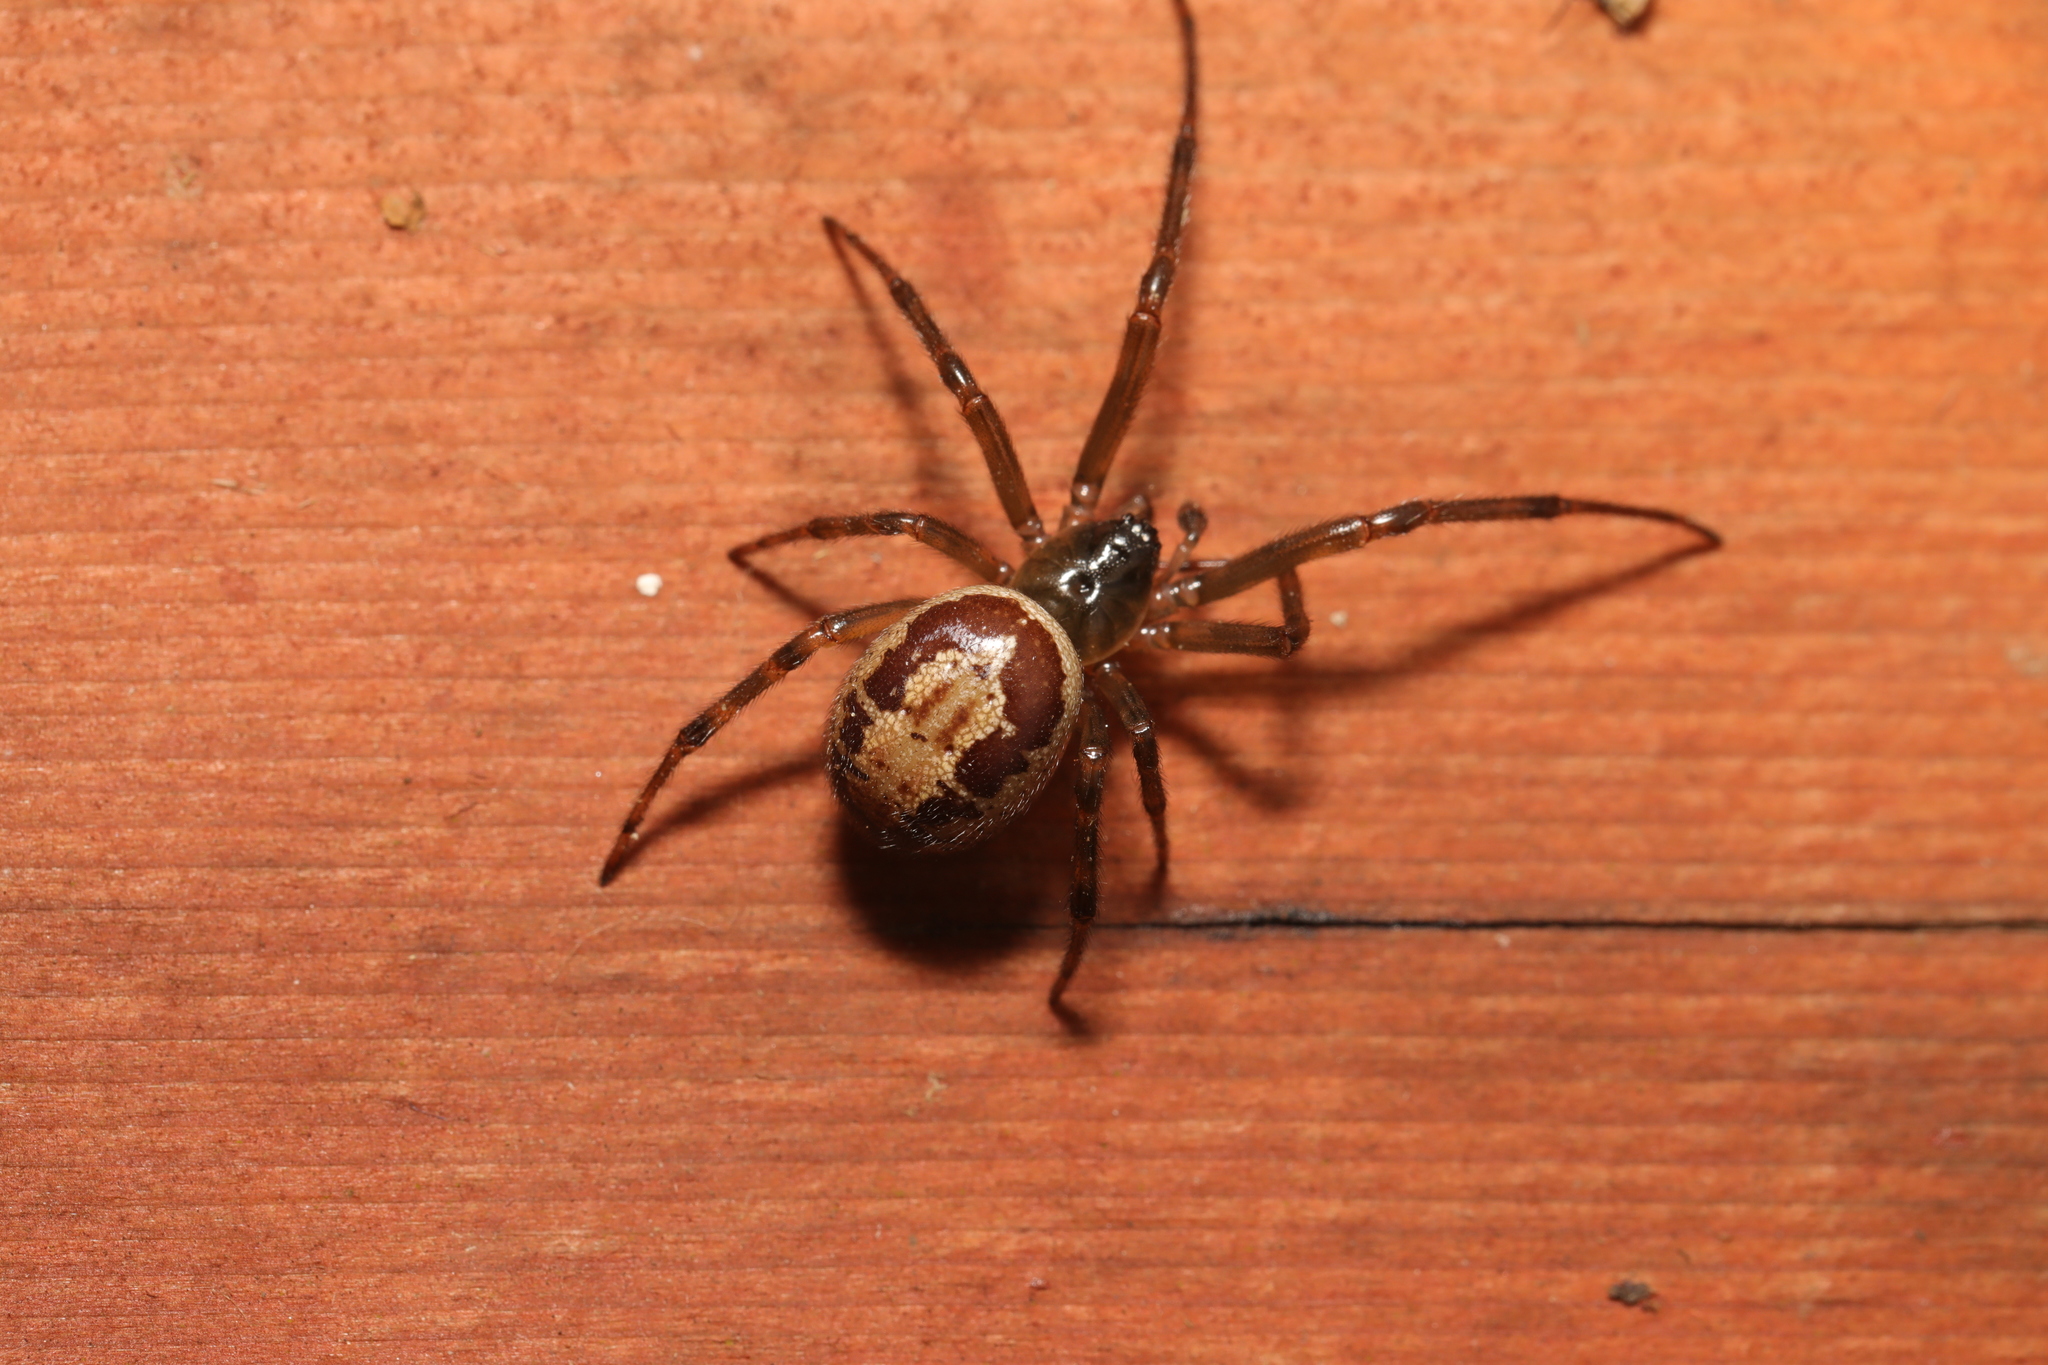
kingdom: Animalia
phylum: Arthropoda
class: Arachnida
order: Araneae
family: Theridiidae
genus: Steatoda
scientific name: Steatoda nobilis
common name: Cobweb weaver
